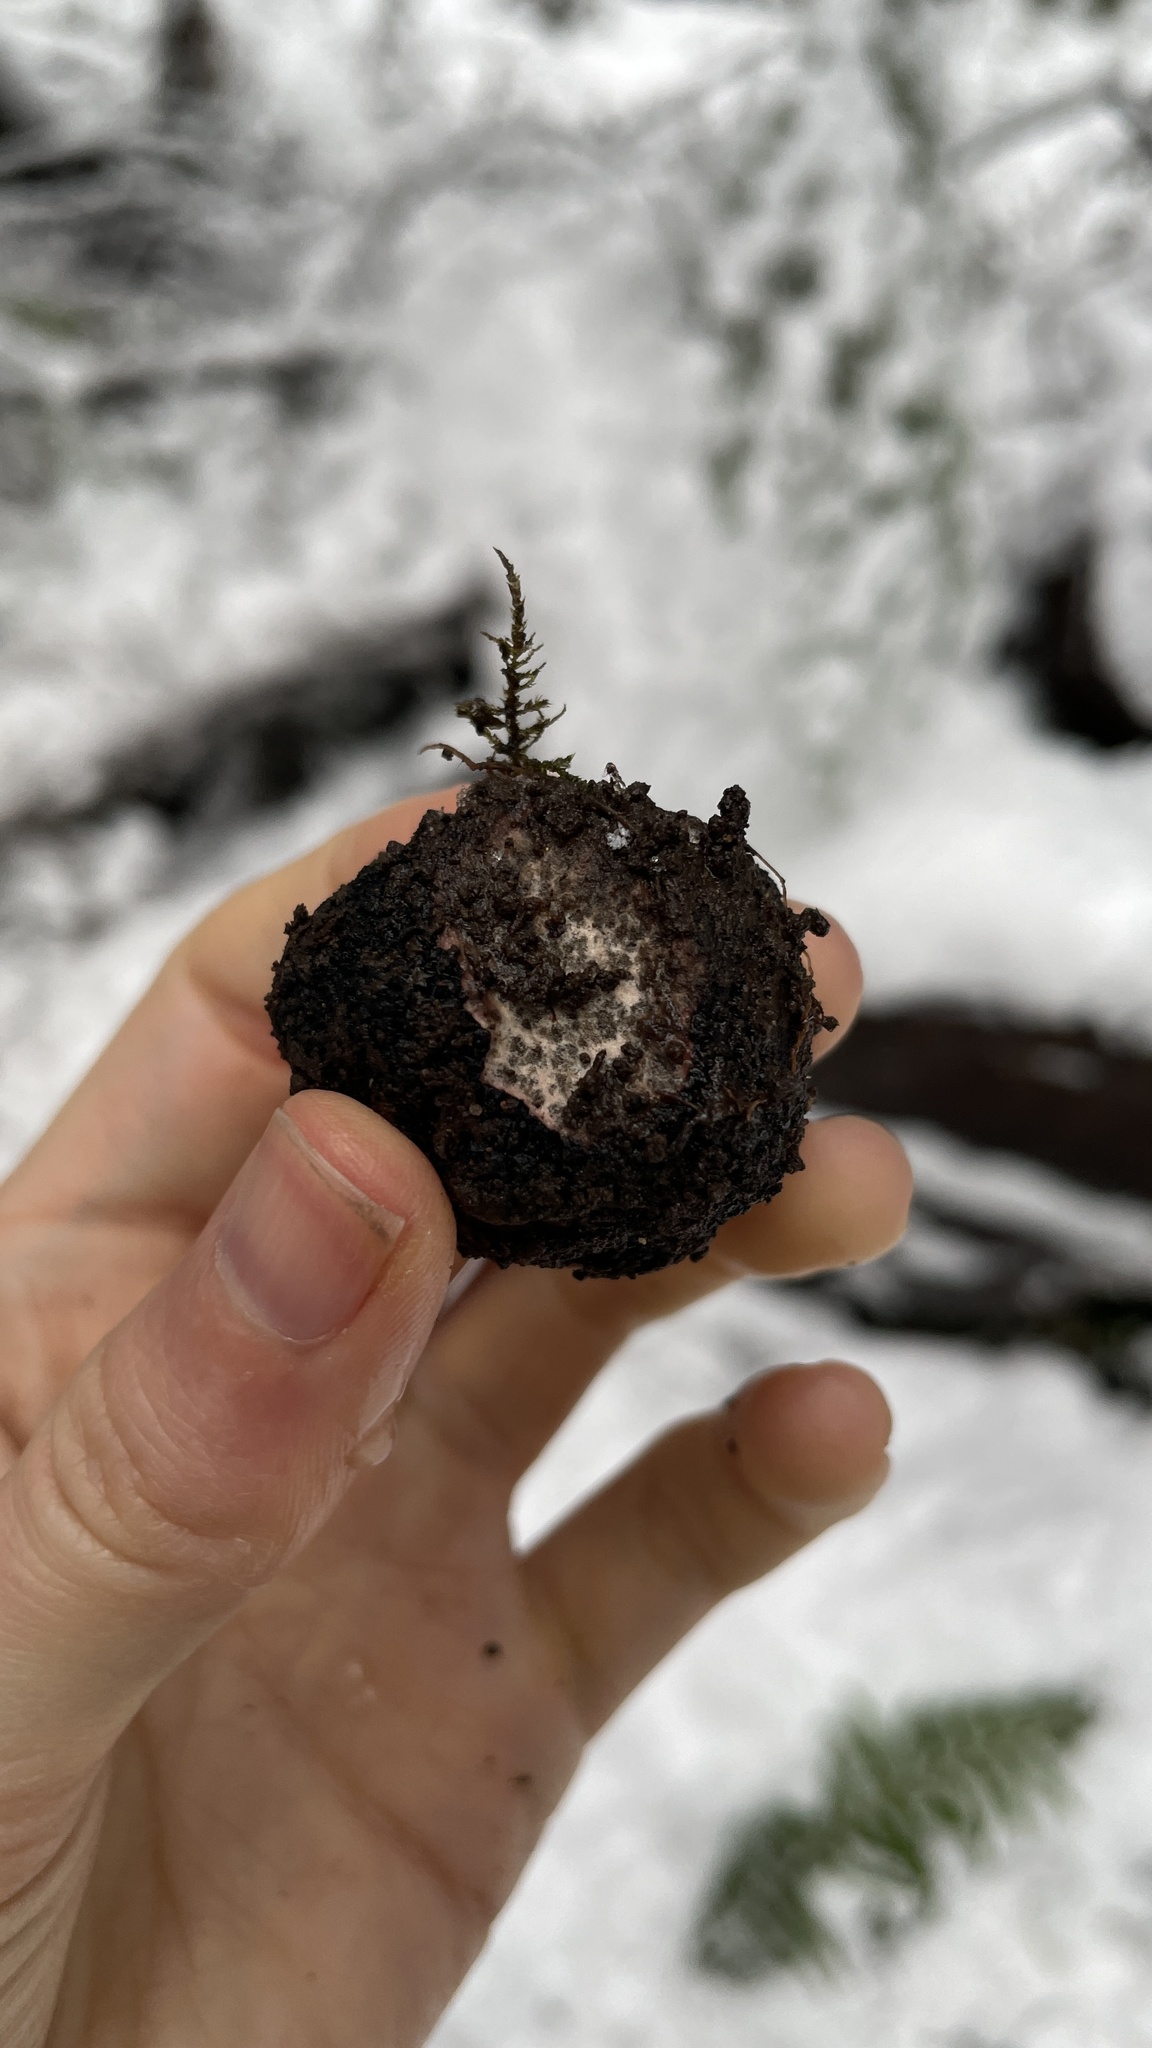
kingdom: Fungi
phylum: Ascomycota
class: Pezizomycetes
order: Pezizales
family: Morchellaceae
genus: Leucangium
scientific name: Leucangium carthusianum
